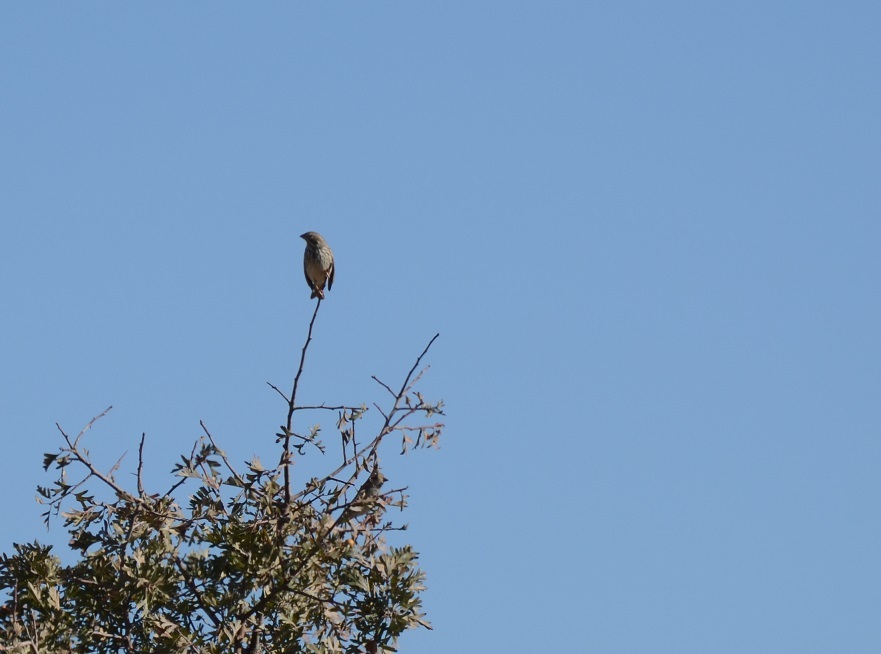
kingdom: Animalia
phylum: Chordata
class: Aves
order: Passeriformes
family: Emberizidae
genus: Emberiza
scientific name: Emberiza calandra
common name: Corn bunting
